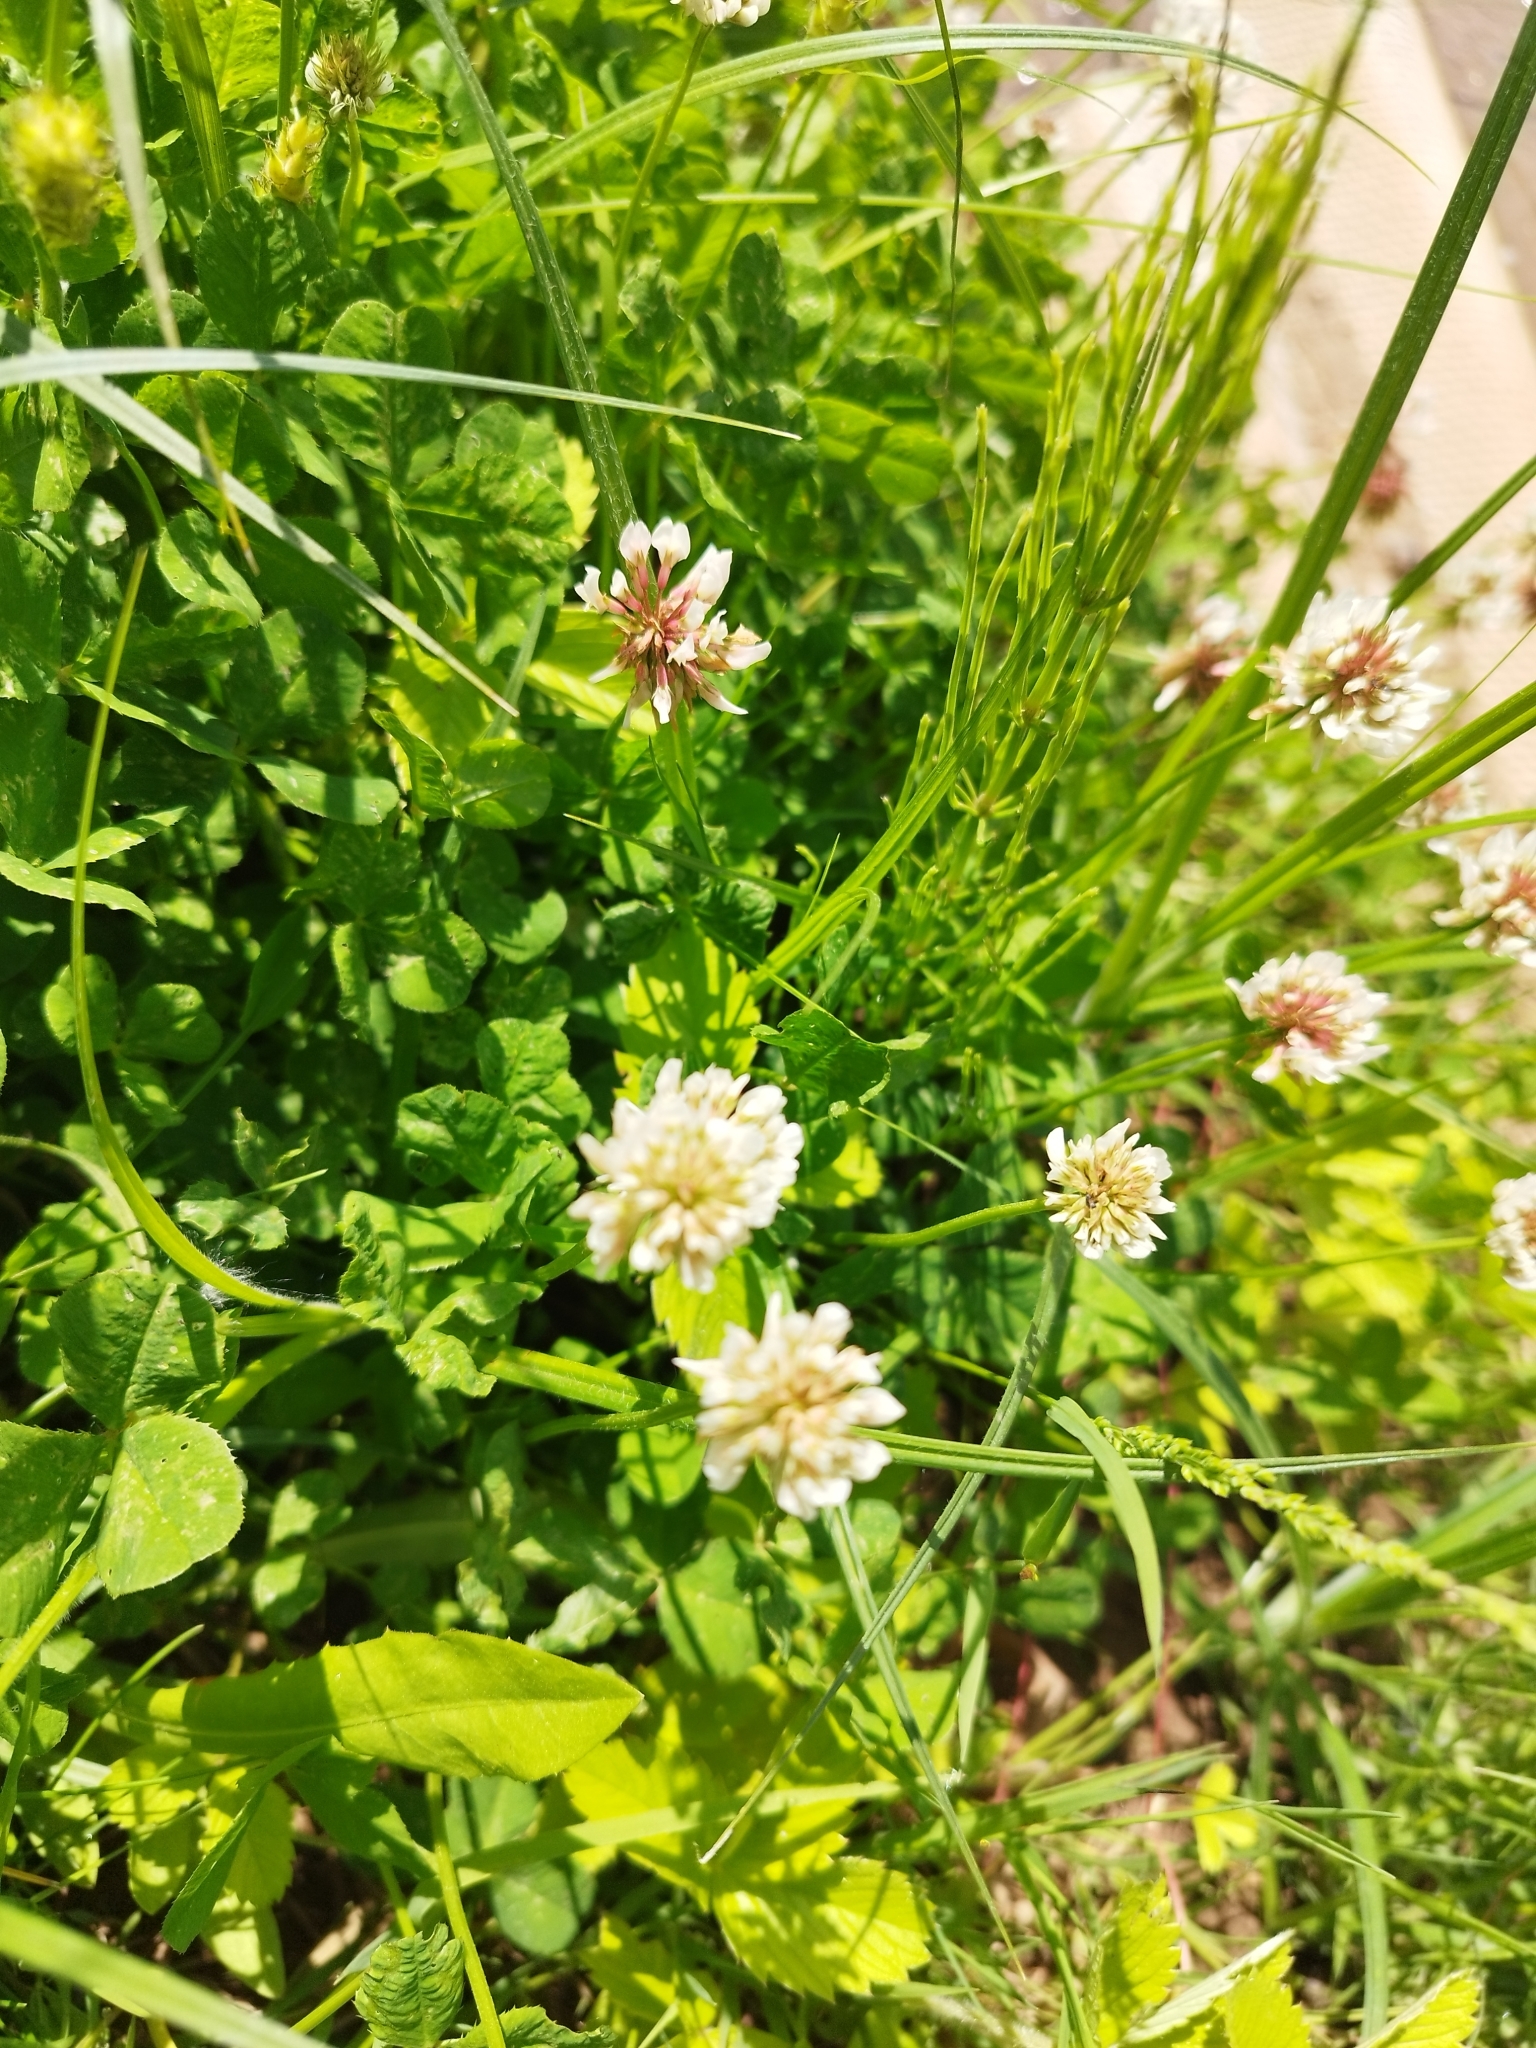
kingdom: Plantae
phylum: Tracheophyta
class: Magnoliopsida
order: Fabales
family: Fabaceae
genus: Trifolium
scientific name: Trifolium repens
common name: White clover
